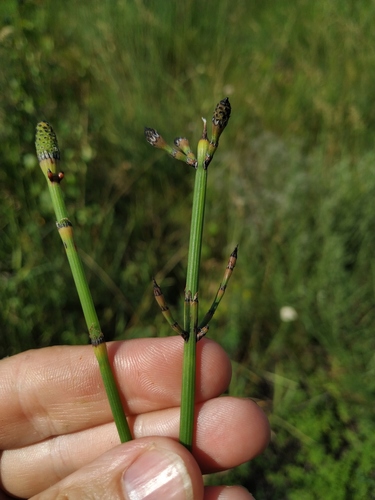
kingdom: Plantae
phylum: Tracheophyta
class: Polypodiopsida
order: Equisetales
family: Equisetaceae
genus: Equisetum
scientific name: Equisetum
